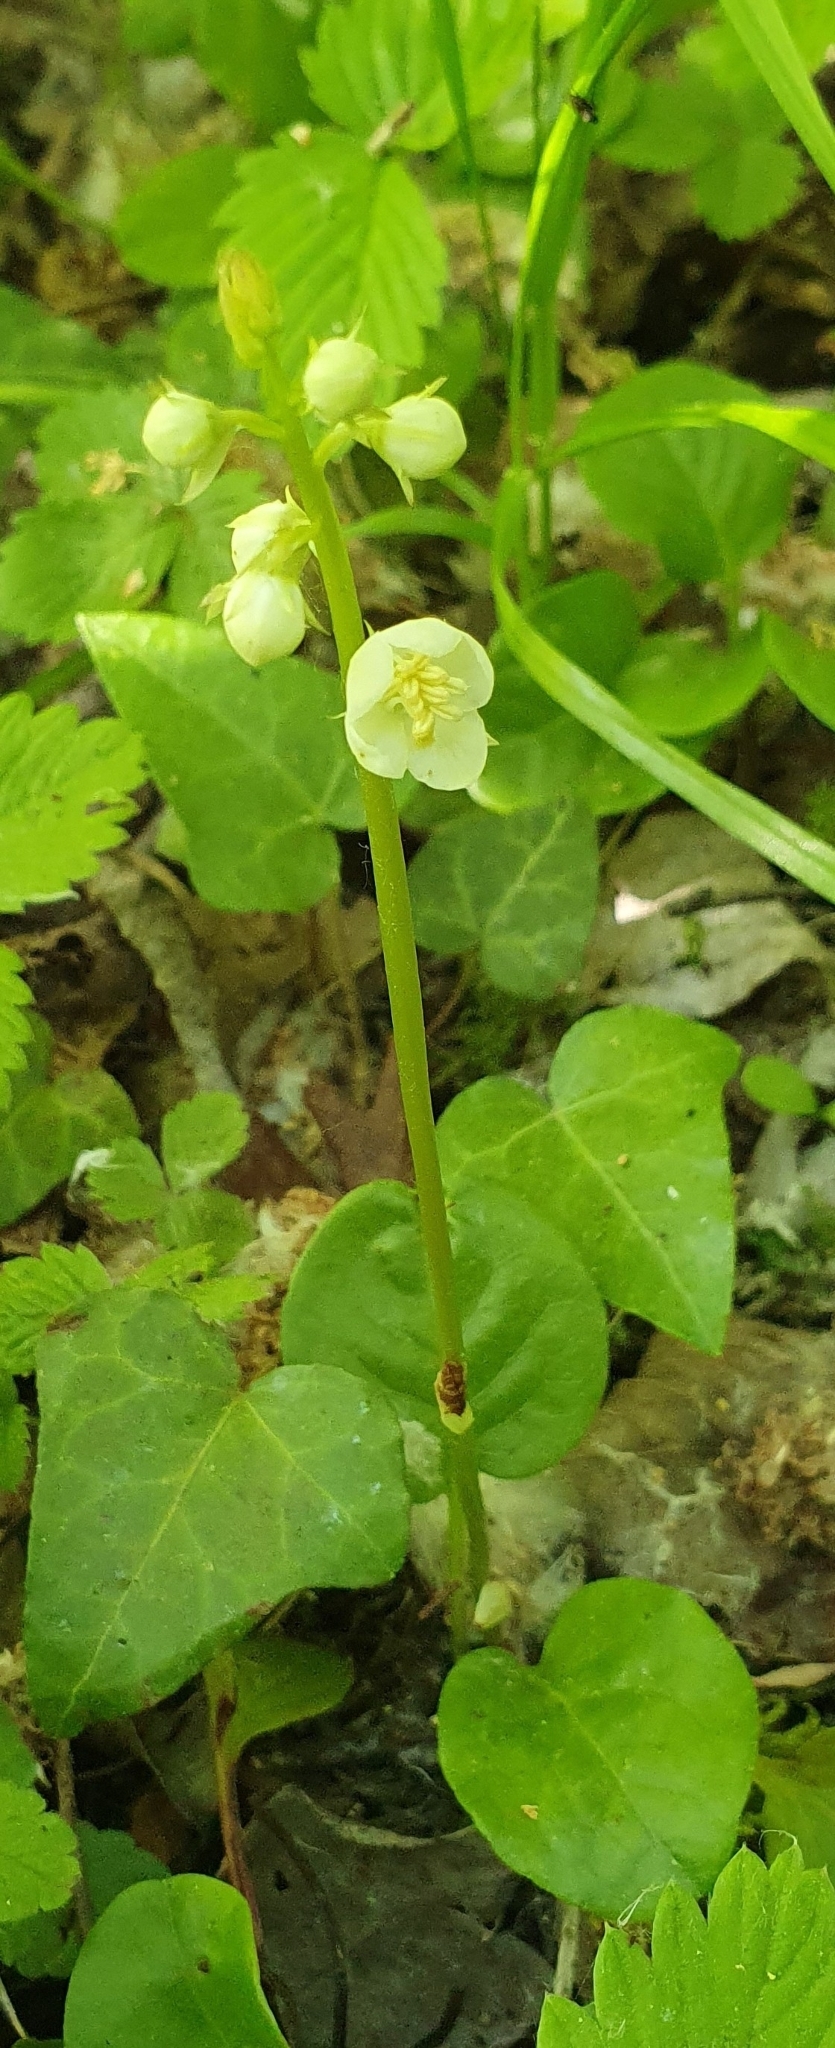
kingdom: Plantae
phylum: Tracheophyta
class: Magnoliopsida
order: Ericales
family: Ericaceae
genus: Pyrola
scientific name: Pyrola rotundifolia
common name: Round-leaved wintergreen
